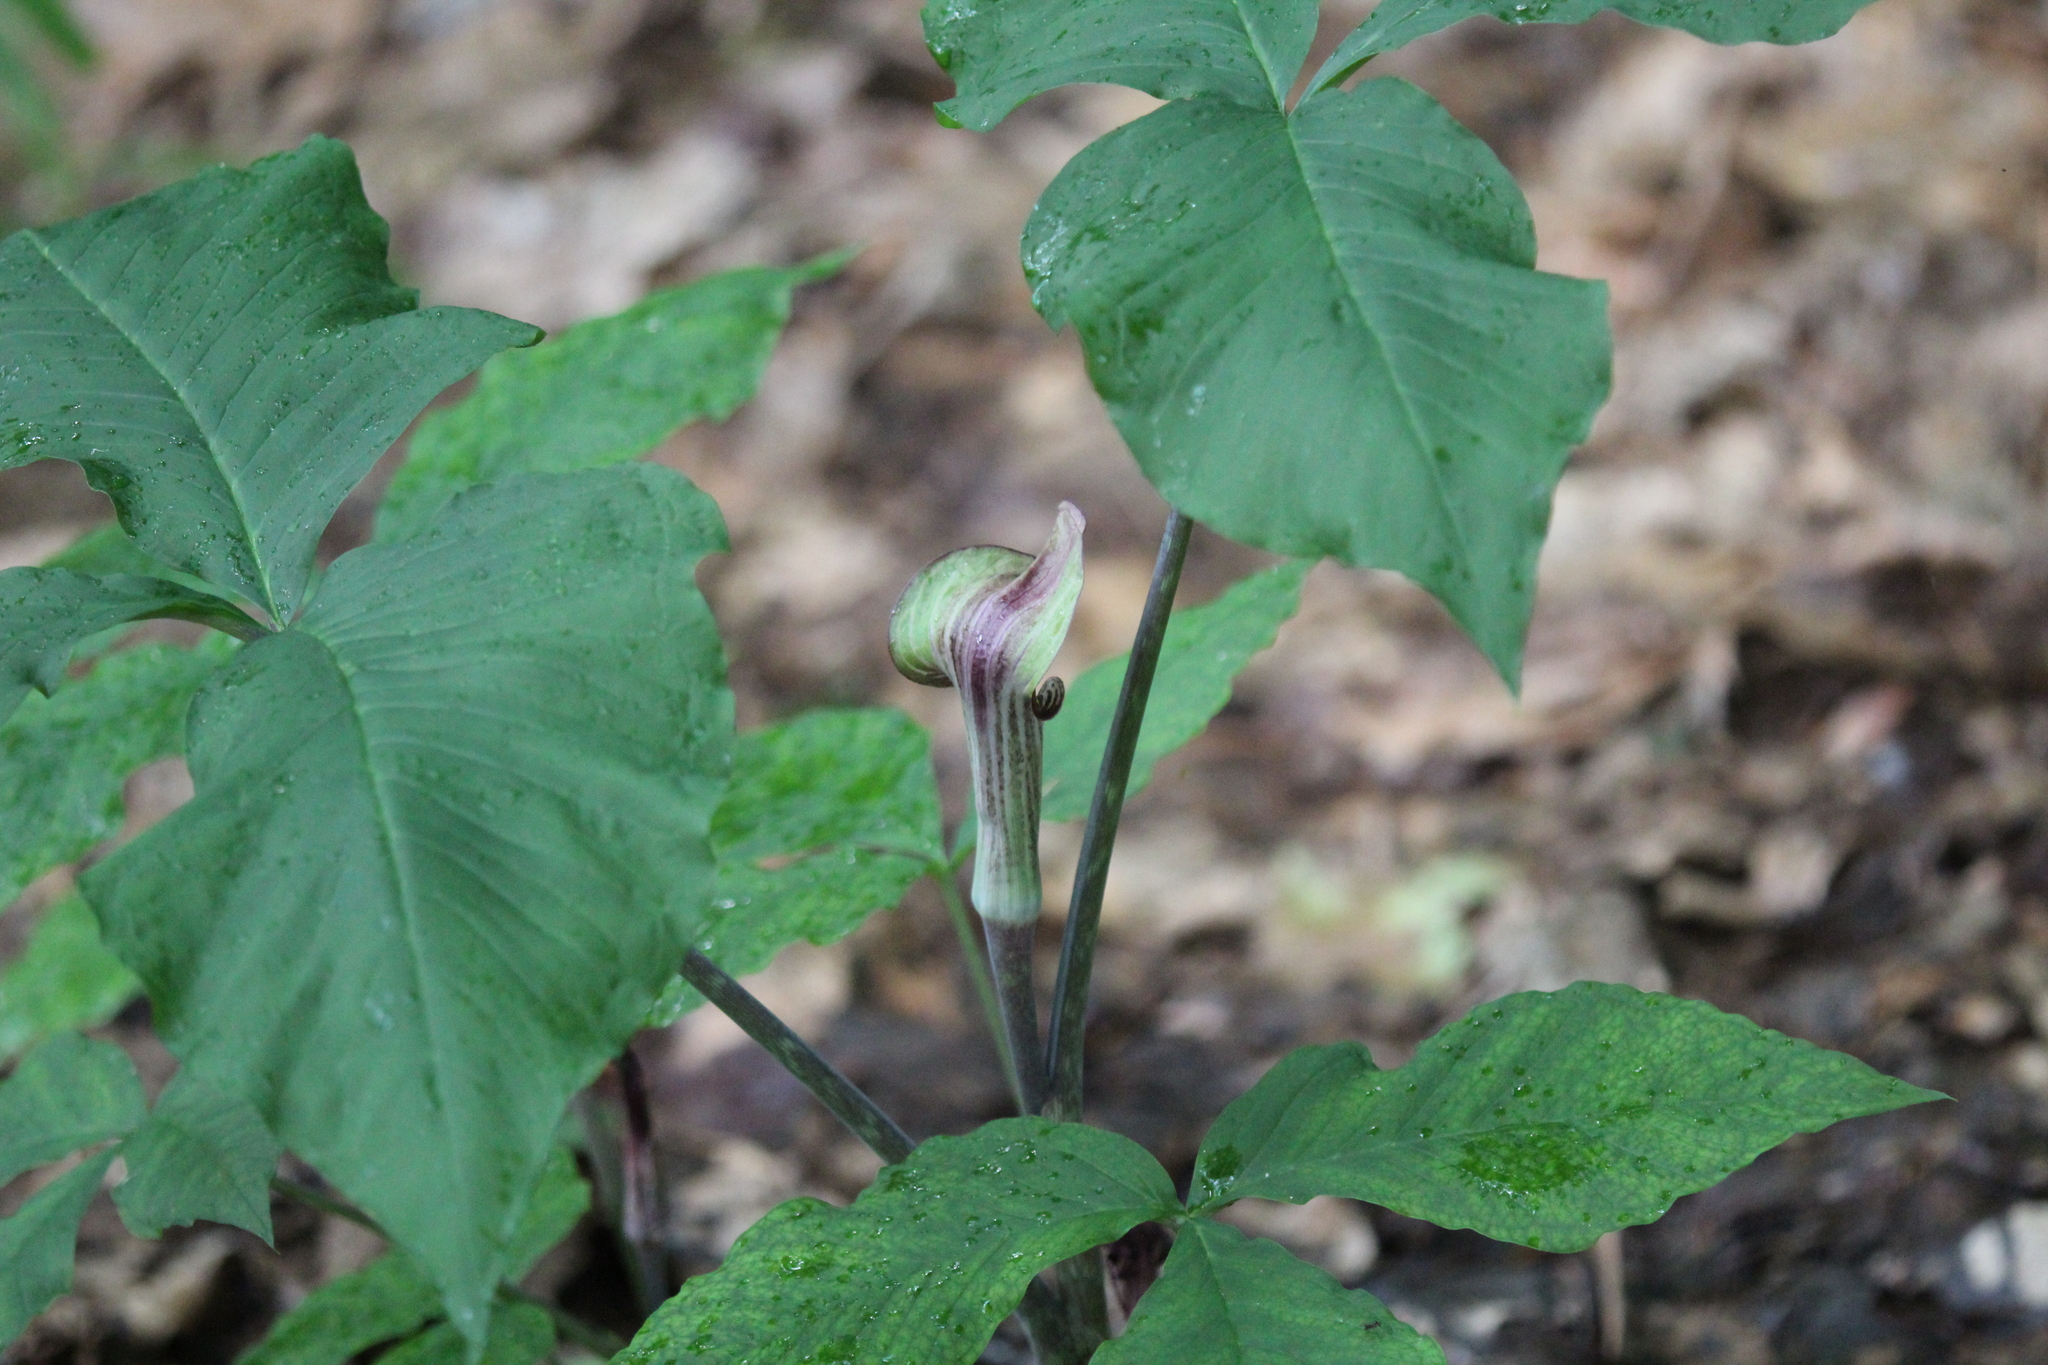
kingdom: Plantae
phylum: Tracheophyta
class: Liliopsida
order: Alismatales
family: Araceae
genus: Arisaema
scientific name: Arisaema triphyllum
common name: Jack-in-the-pulpit
